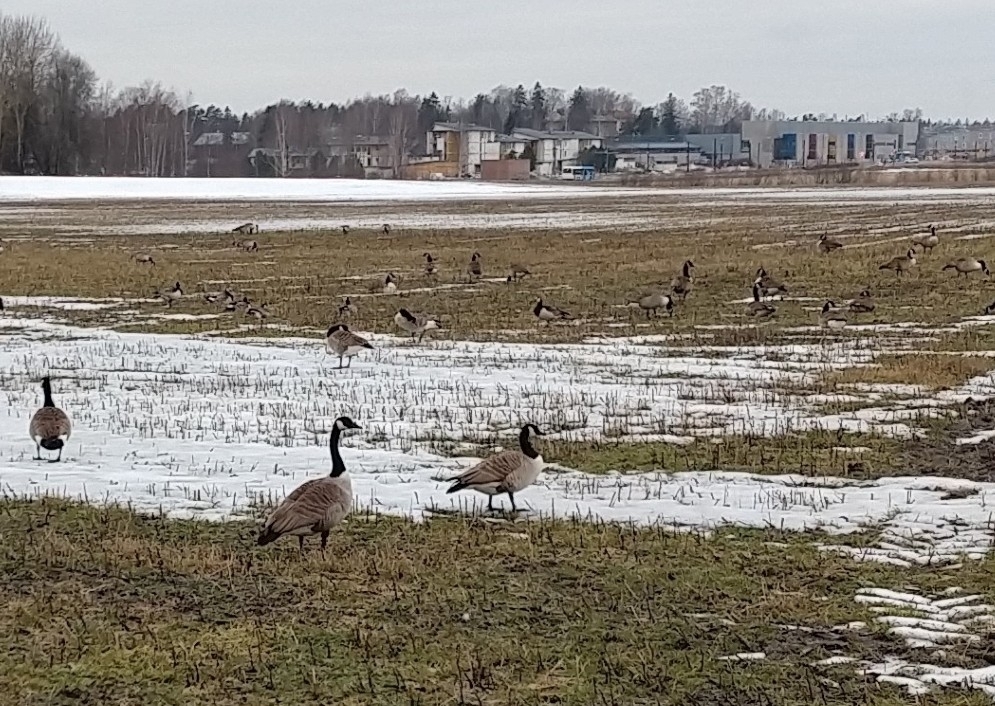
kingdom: Animalia
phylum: Chordata
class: Aves
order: Anseriformes
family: Anatidae
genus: Branta
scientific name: Branta canadensis
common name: Canada goose
